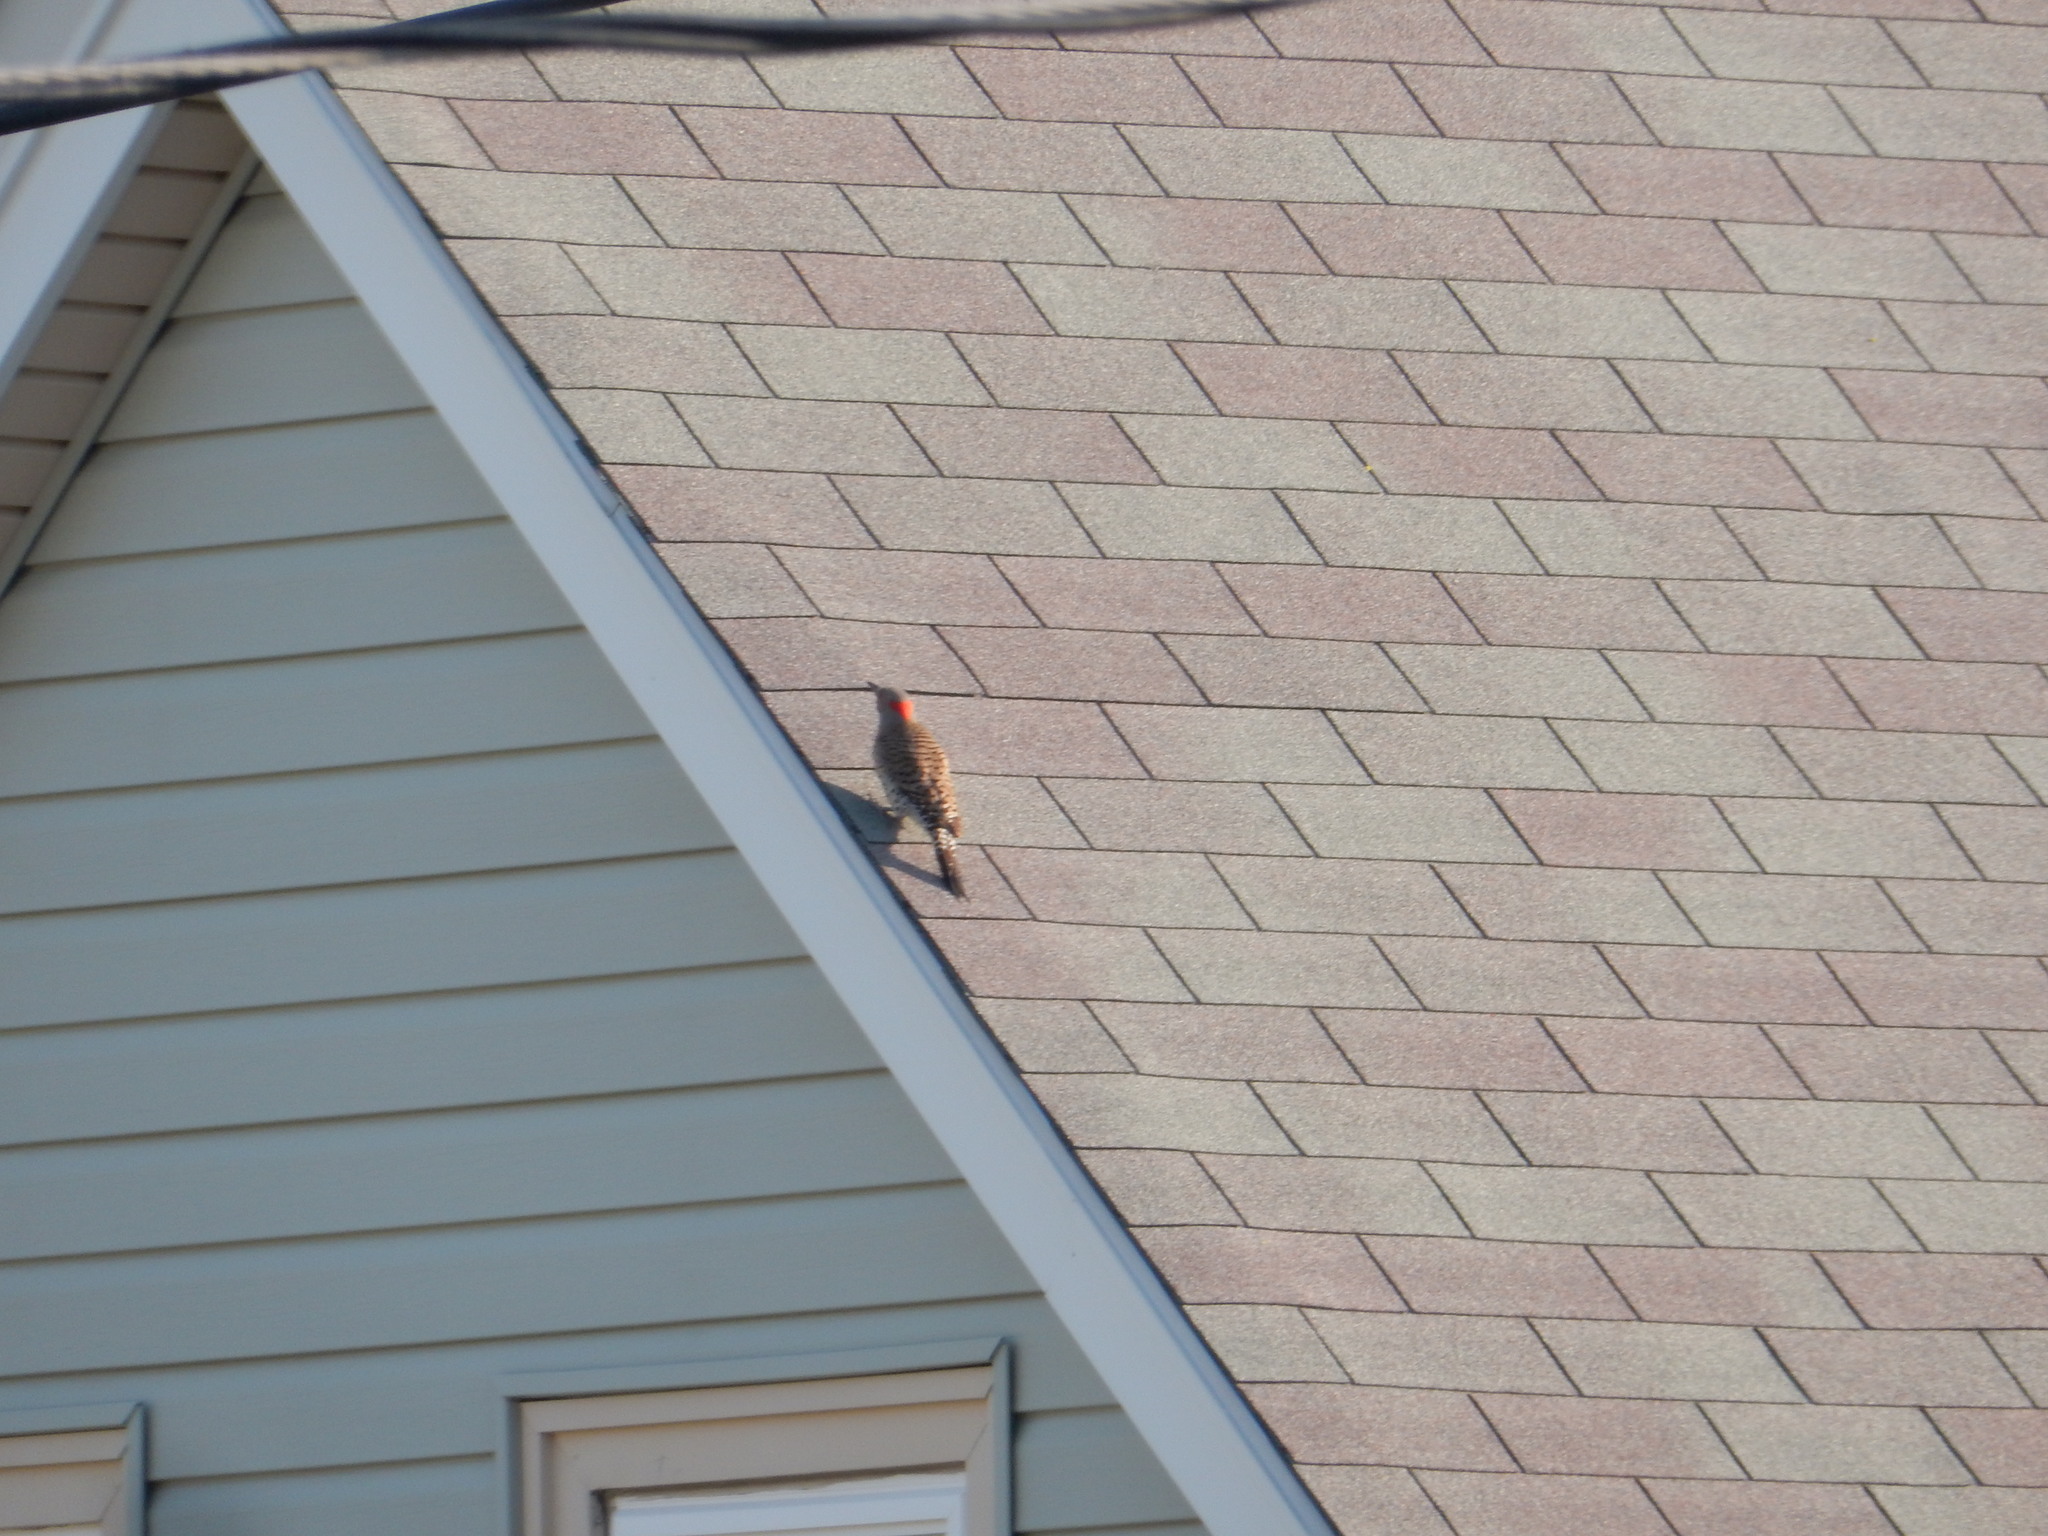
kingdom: Animalia
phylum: Chordata
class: Aves
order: Piciformes
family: Picidae
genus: Colaptes
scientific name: Colaptes auratus
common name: Northern flicker
